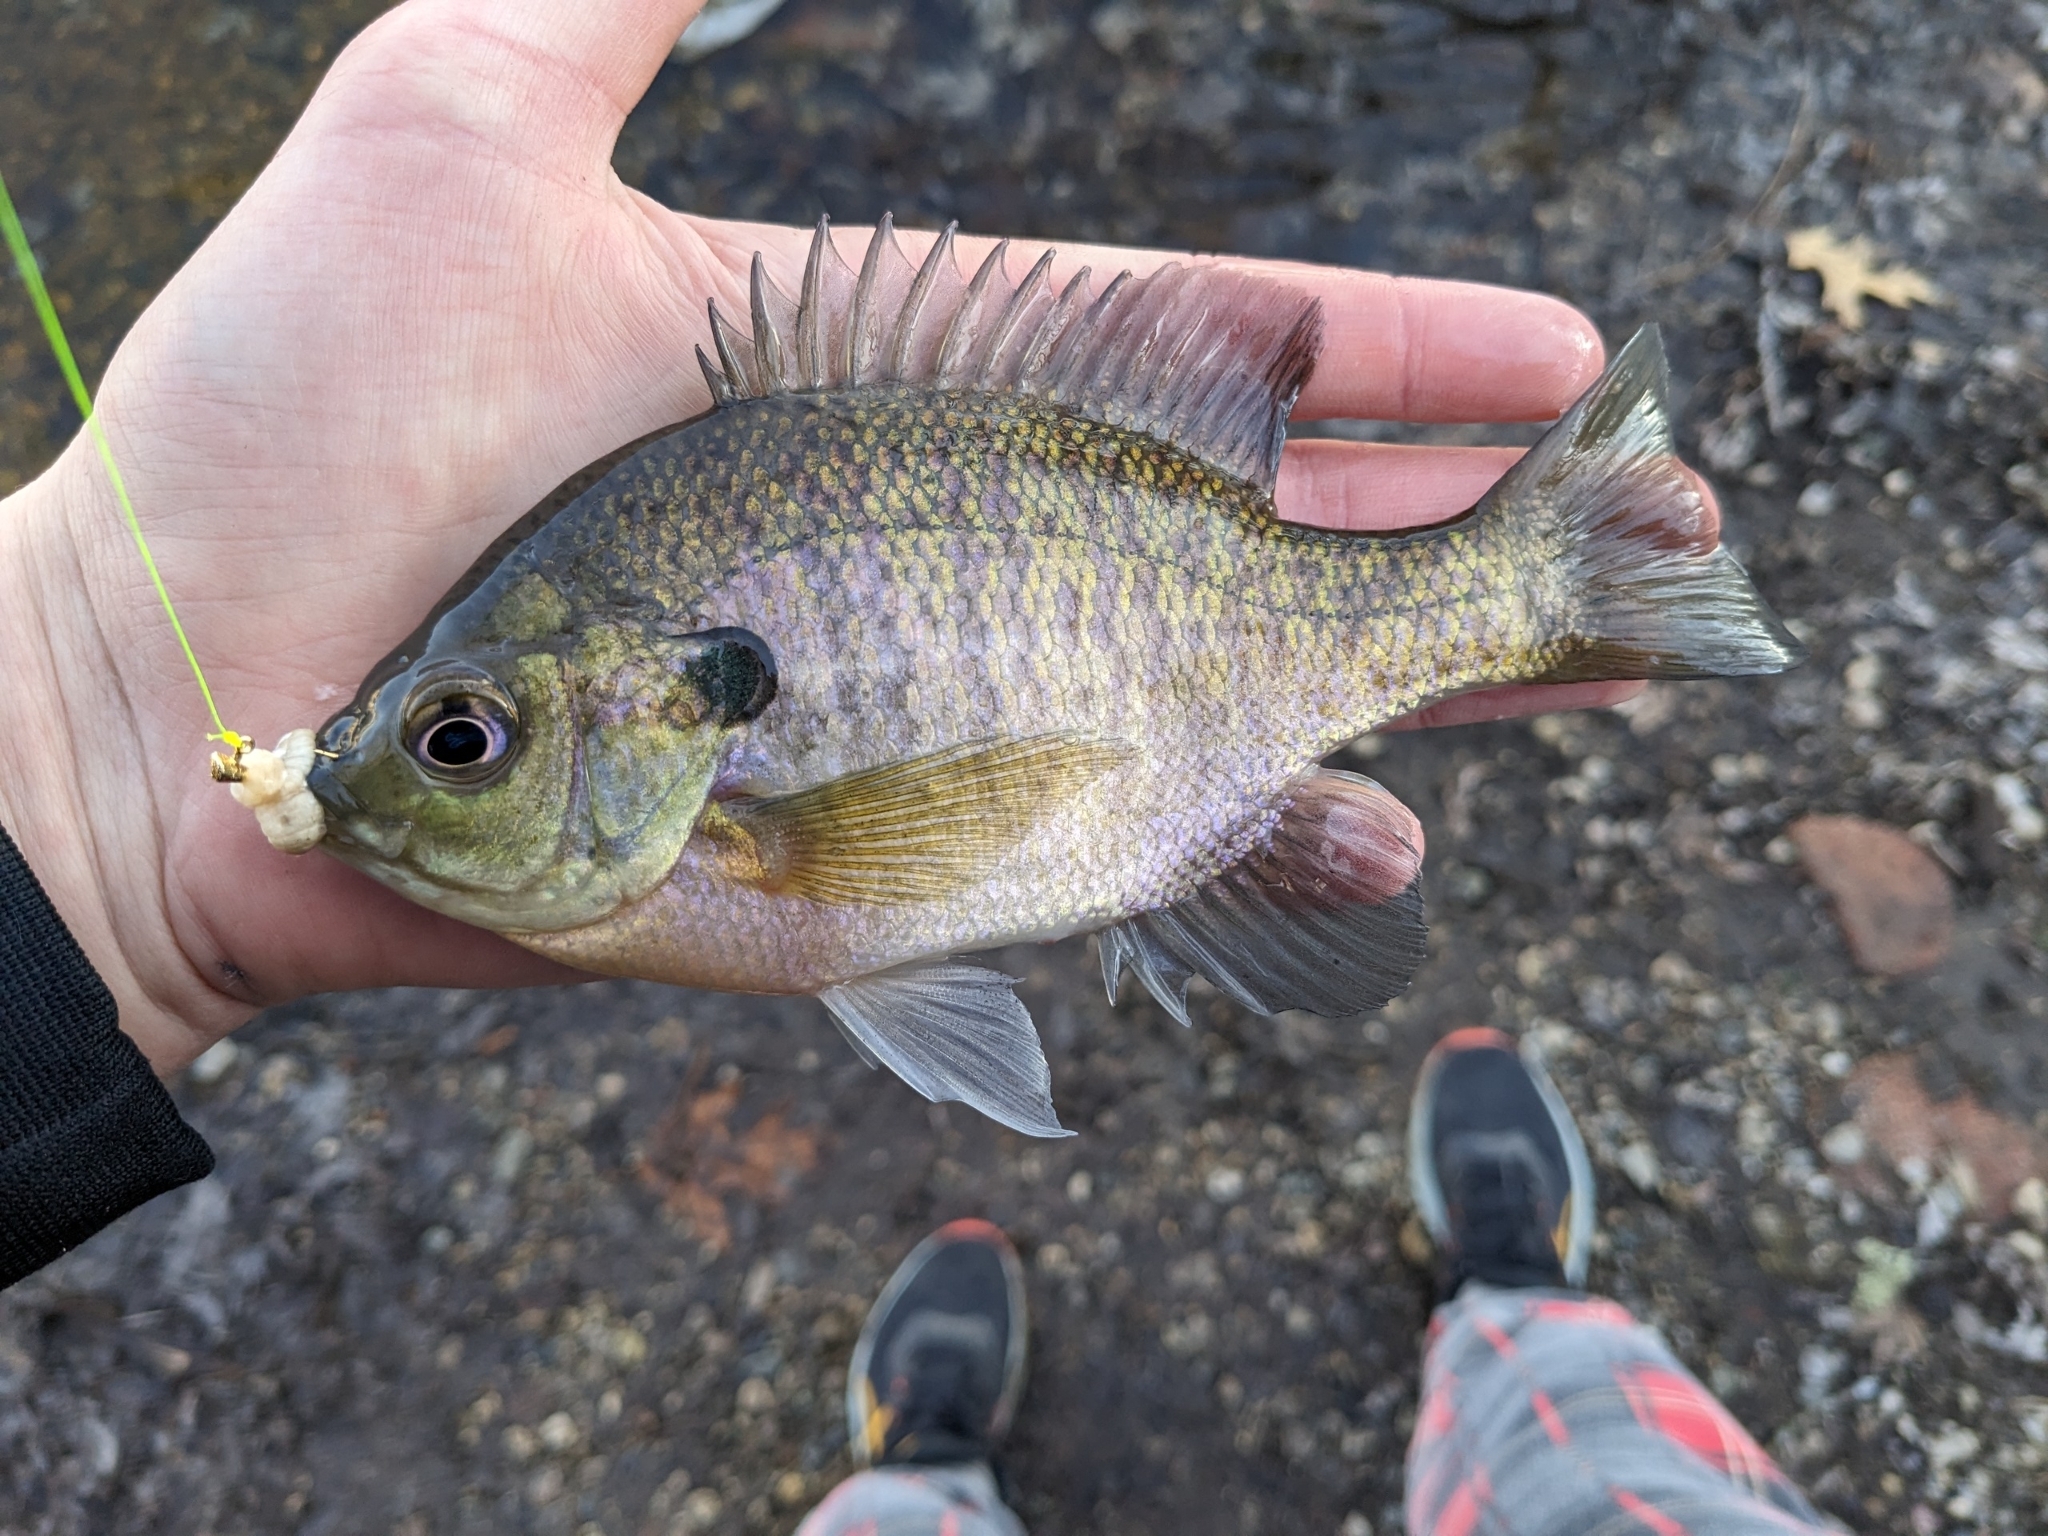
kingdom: Animalia
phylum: Chordata
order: Perciformes
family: Centrarchidae
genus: Lepomis
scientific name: Lepomis macrochirus
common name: Bluegill
